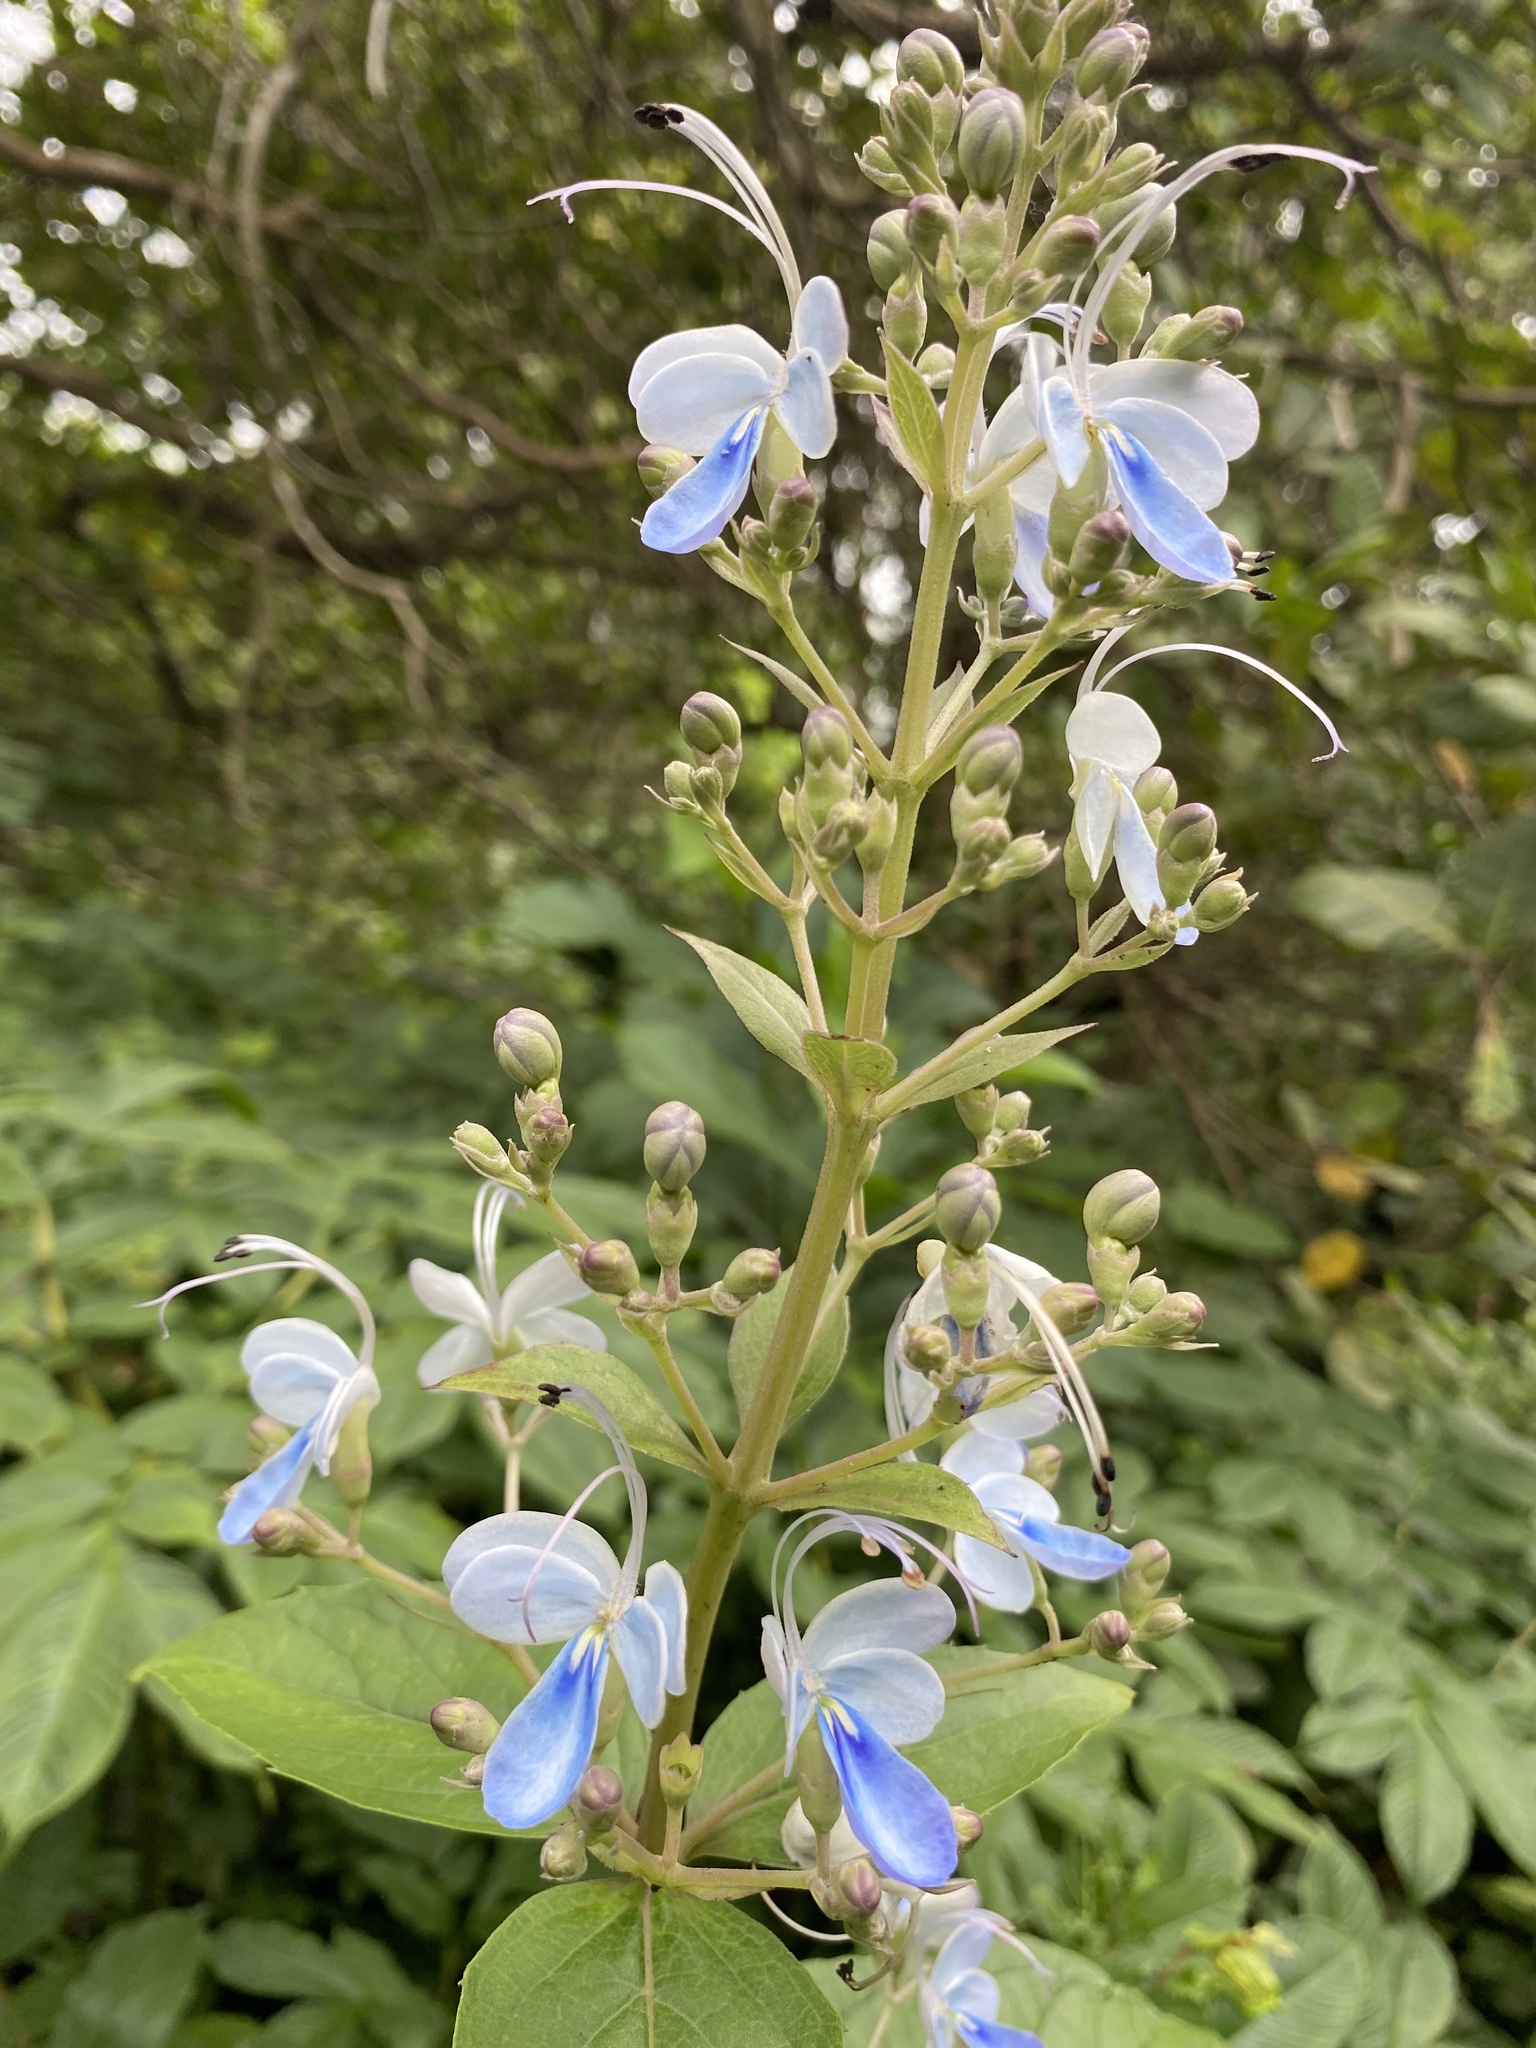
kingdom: Plantae
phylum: Tracheophyta
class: Magnoliopsida
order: Lamiales
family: Lamiaceae
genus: Rotheca
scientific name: Rotheca serrata
